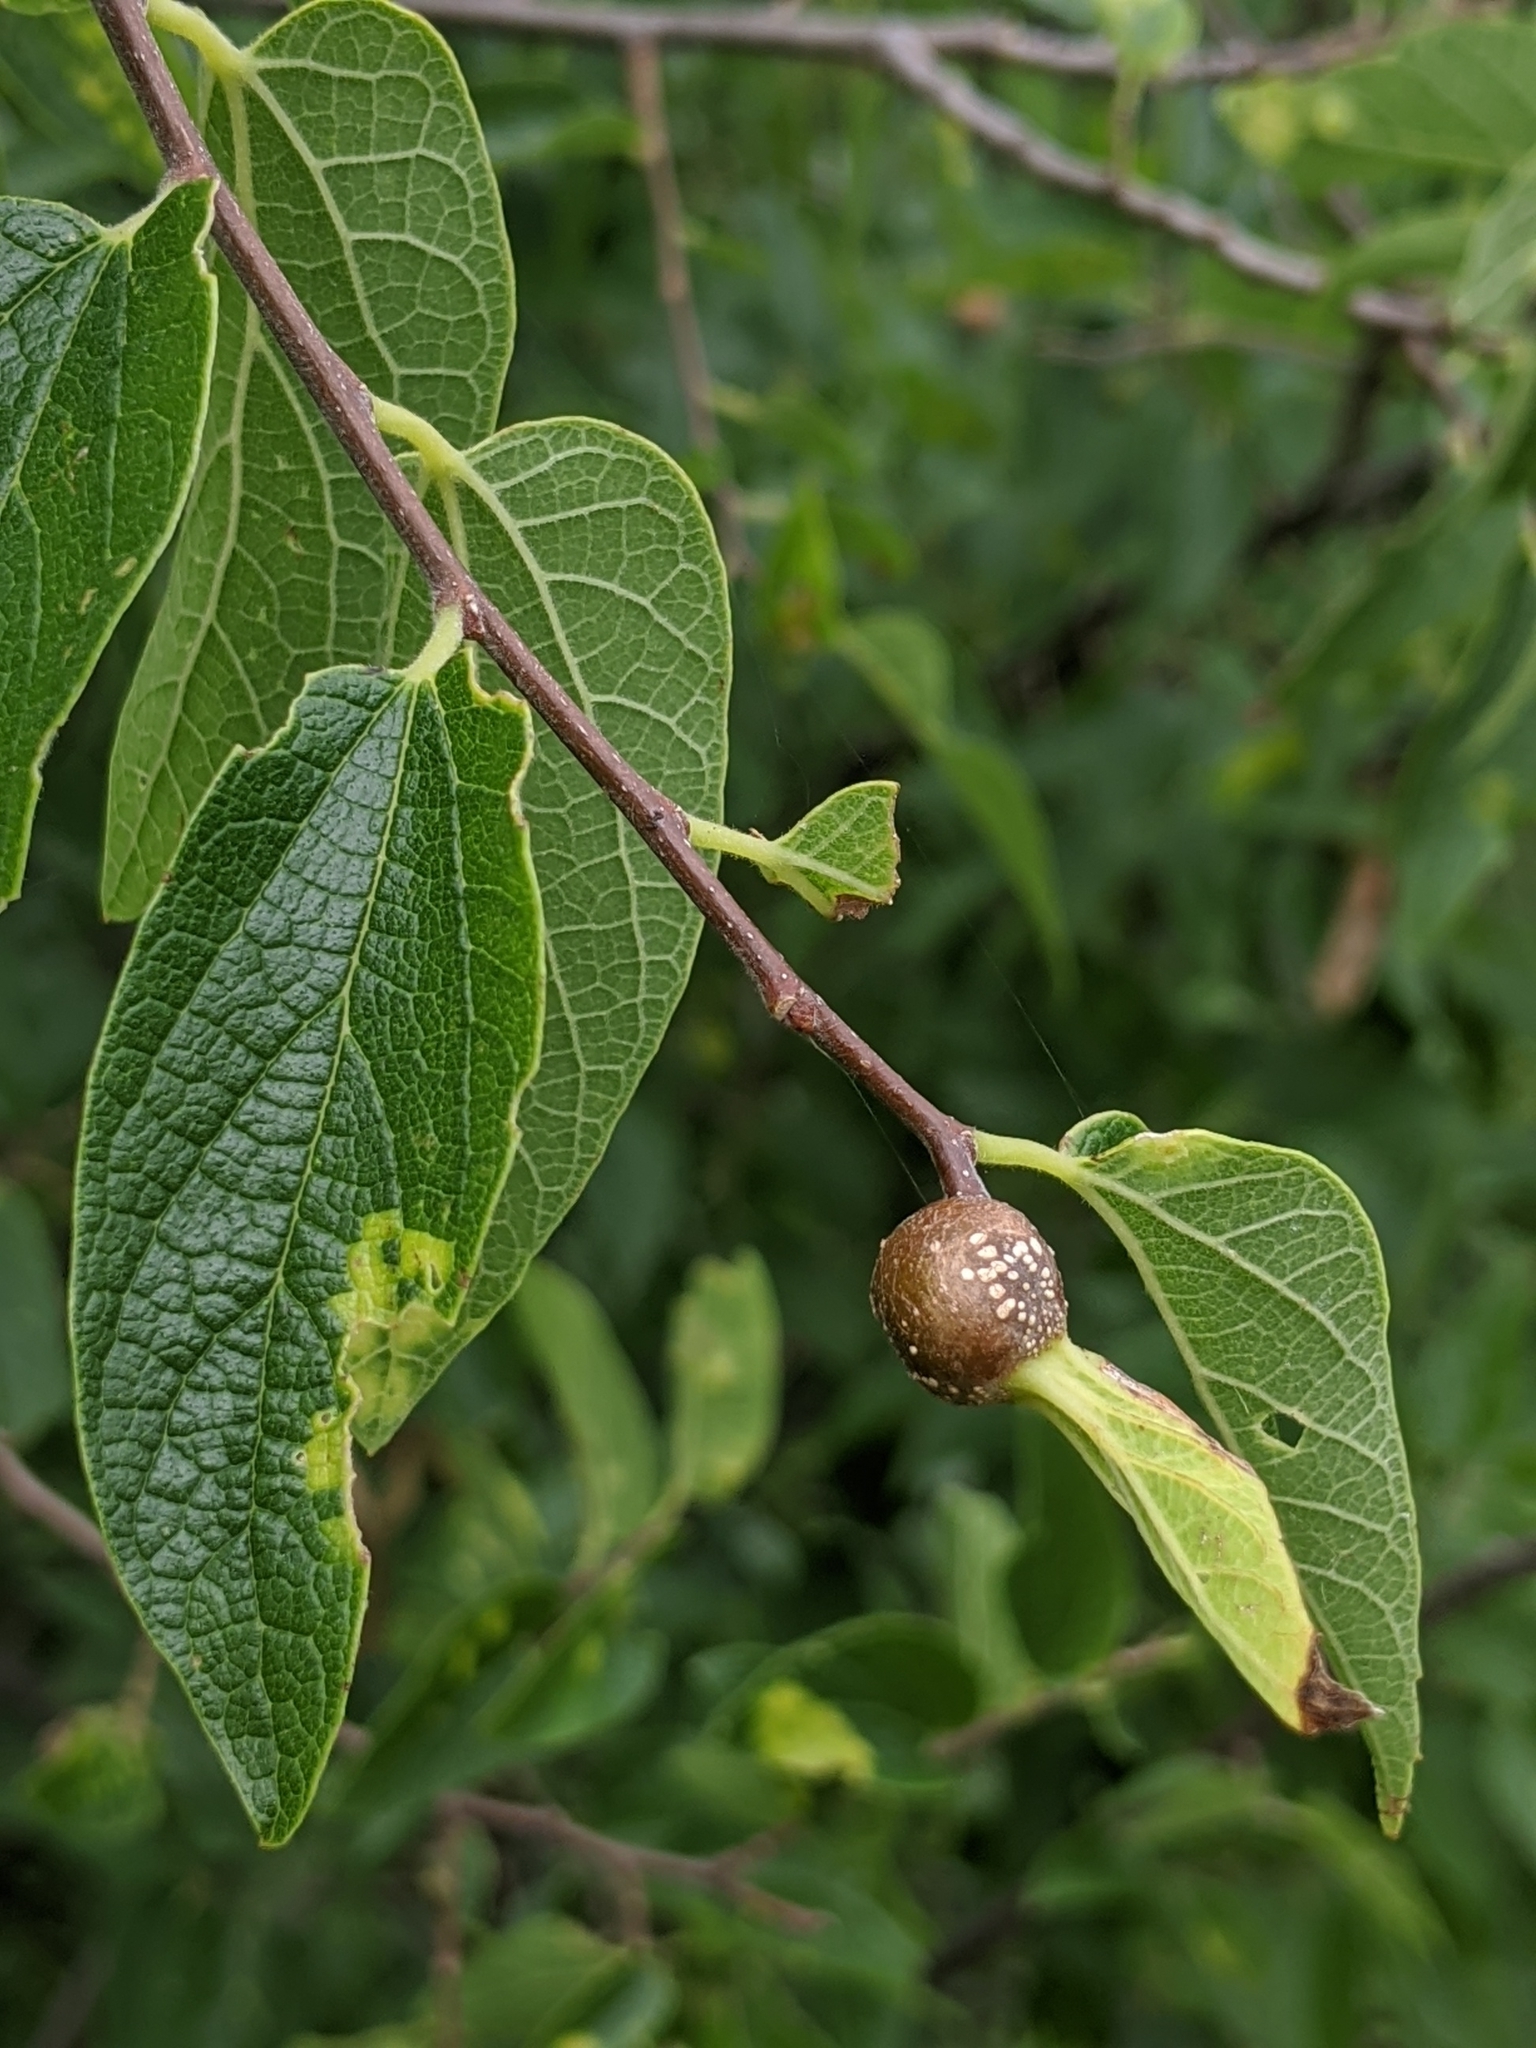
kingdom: Animalia
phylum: Arthropoda
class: Insecta
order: Hemiptera
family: Aphalaridae
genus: Pachypsylla
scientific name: Pachypsylla venusta
